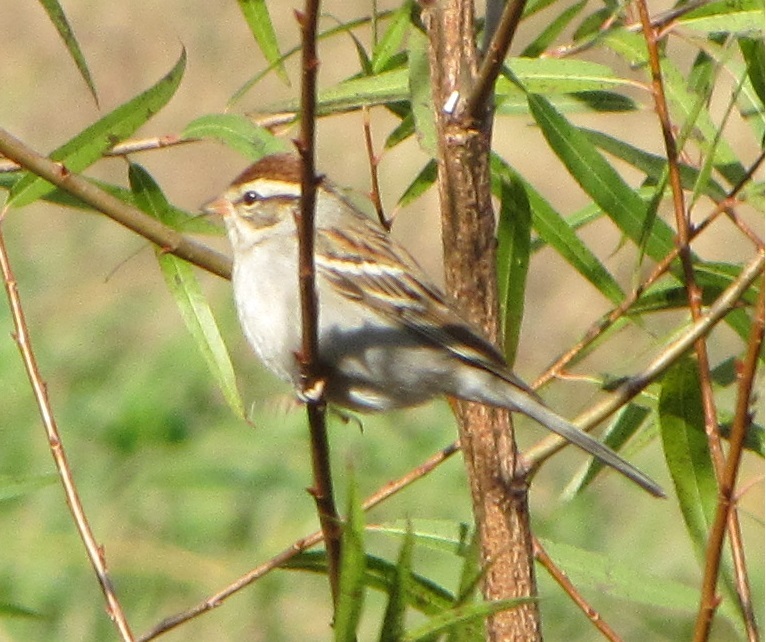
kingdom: Animalia
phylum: Chordata
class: Aves
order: Passeriformes
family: Passerellidae
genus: Spizella
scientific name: Spizella passerina
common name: Chipping sparrow
